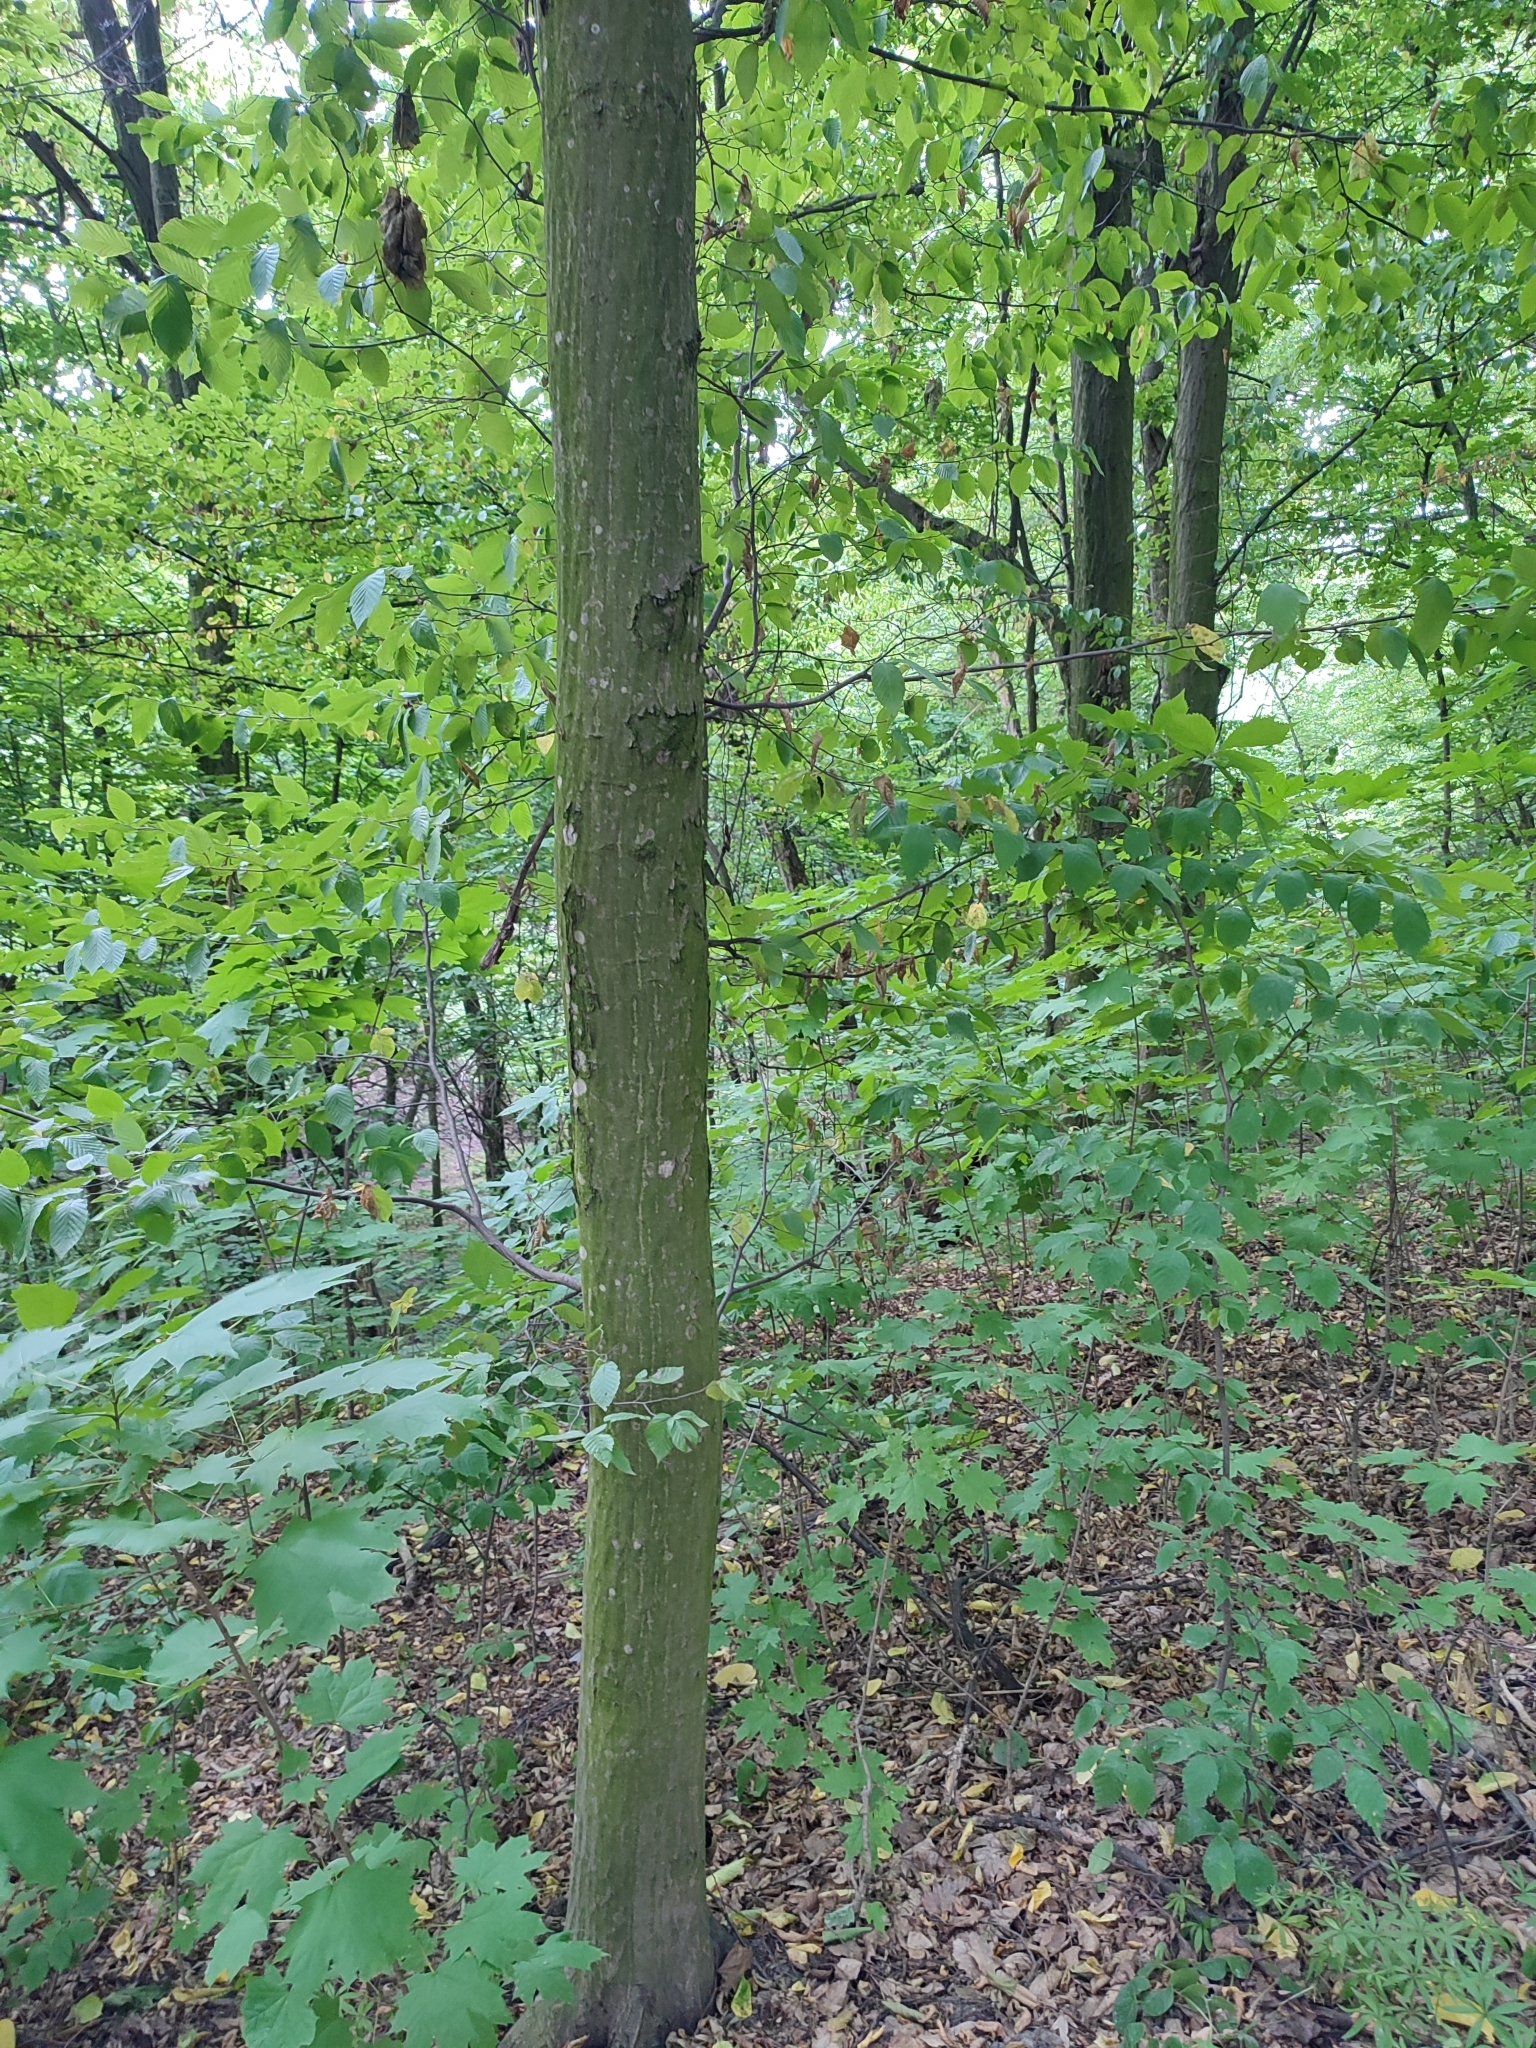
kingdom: Plantae
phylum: Tracheophyta
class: Magnoliopsida
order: Fagales
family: Betulaceae
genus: Carpinus
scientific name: Carpinus betulus
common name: Hornbeam
